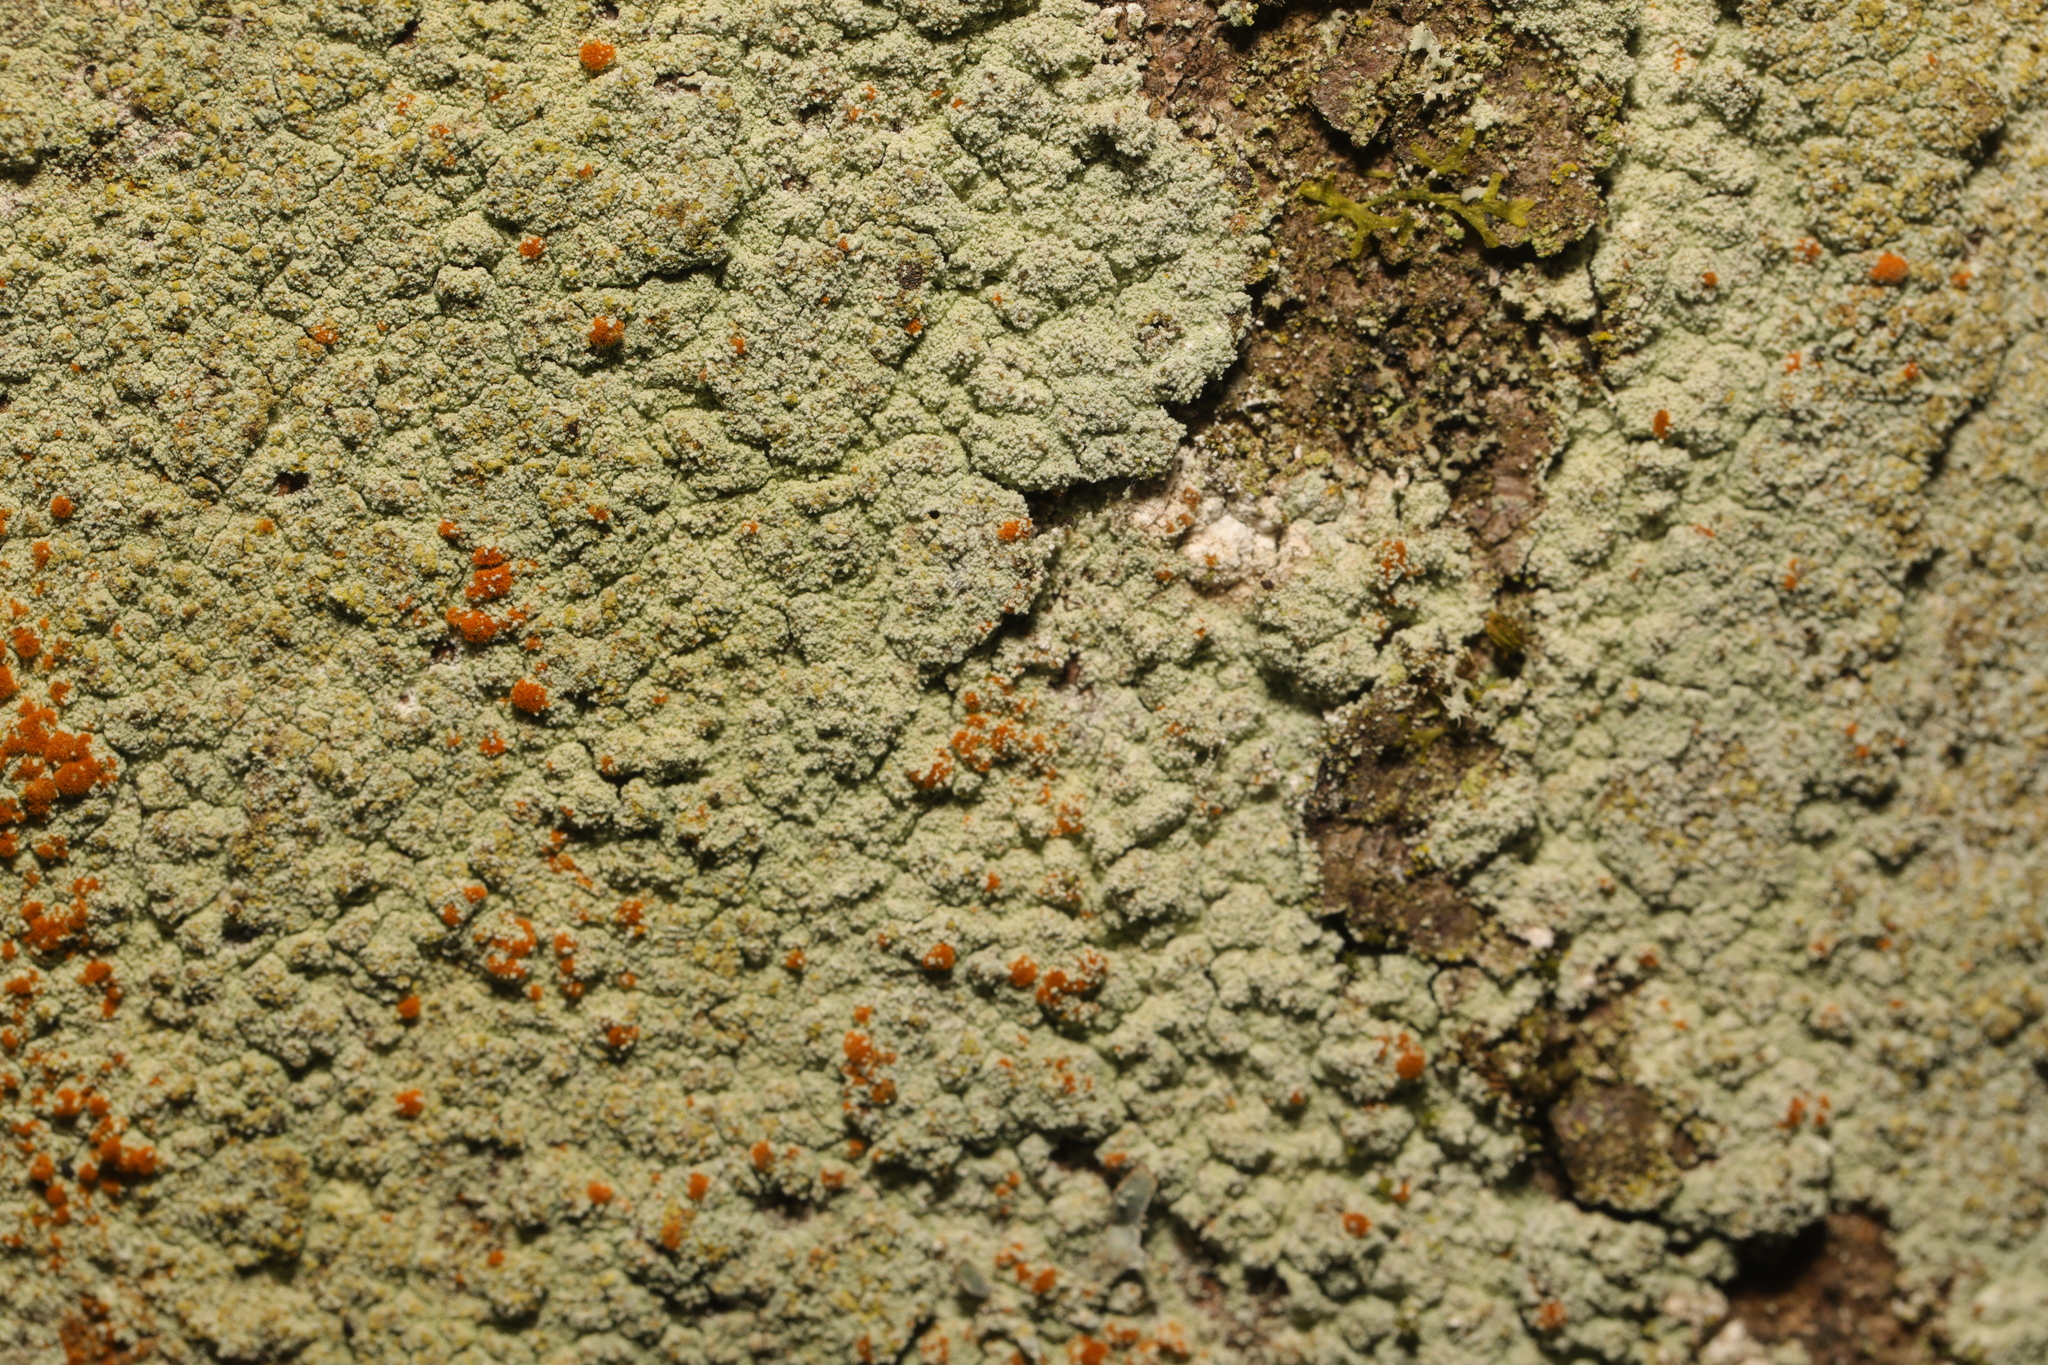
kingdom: Fungi
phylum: Ascomycota
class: Lecanoromycetes
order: Lecanorales
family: Stereocaulaceae
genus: Lepraria
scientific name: Lepraria
